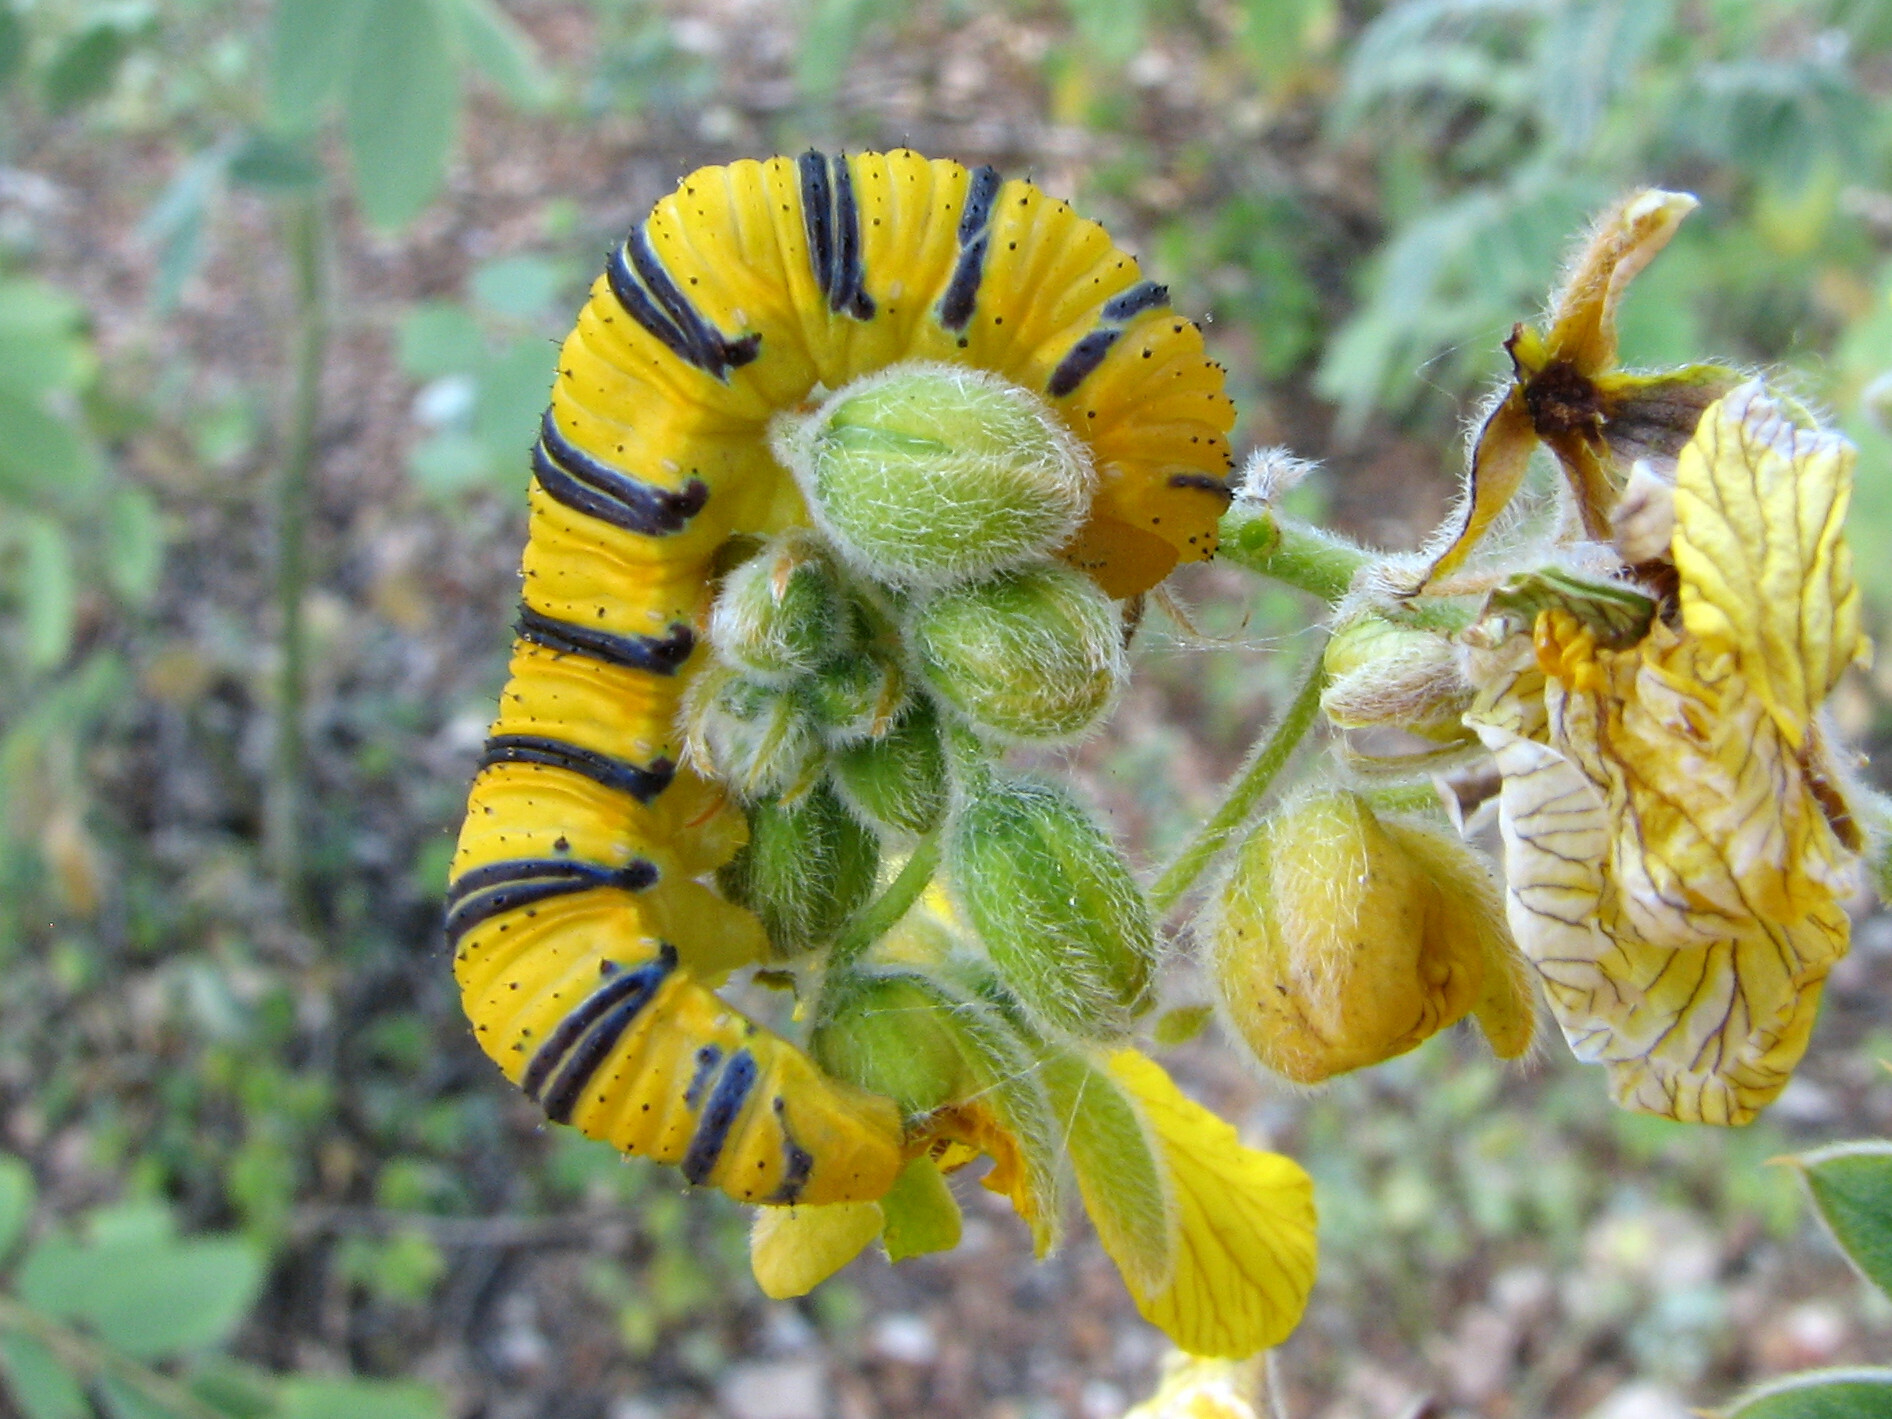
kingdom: Animalia
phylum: Arthropoda
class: Insecta
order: Lepidoptera
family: Pieridae
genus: Phoebis
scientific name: Phoebis sennae
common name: Cloudless sulphur
